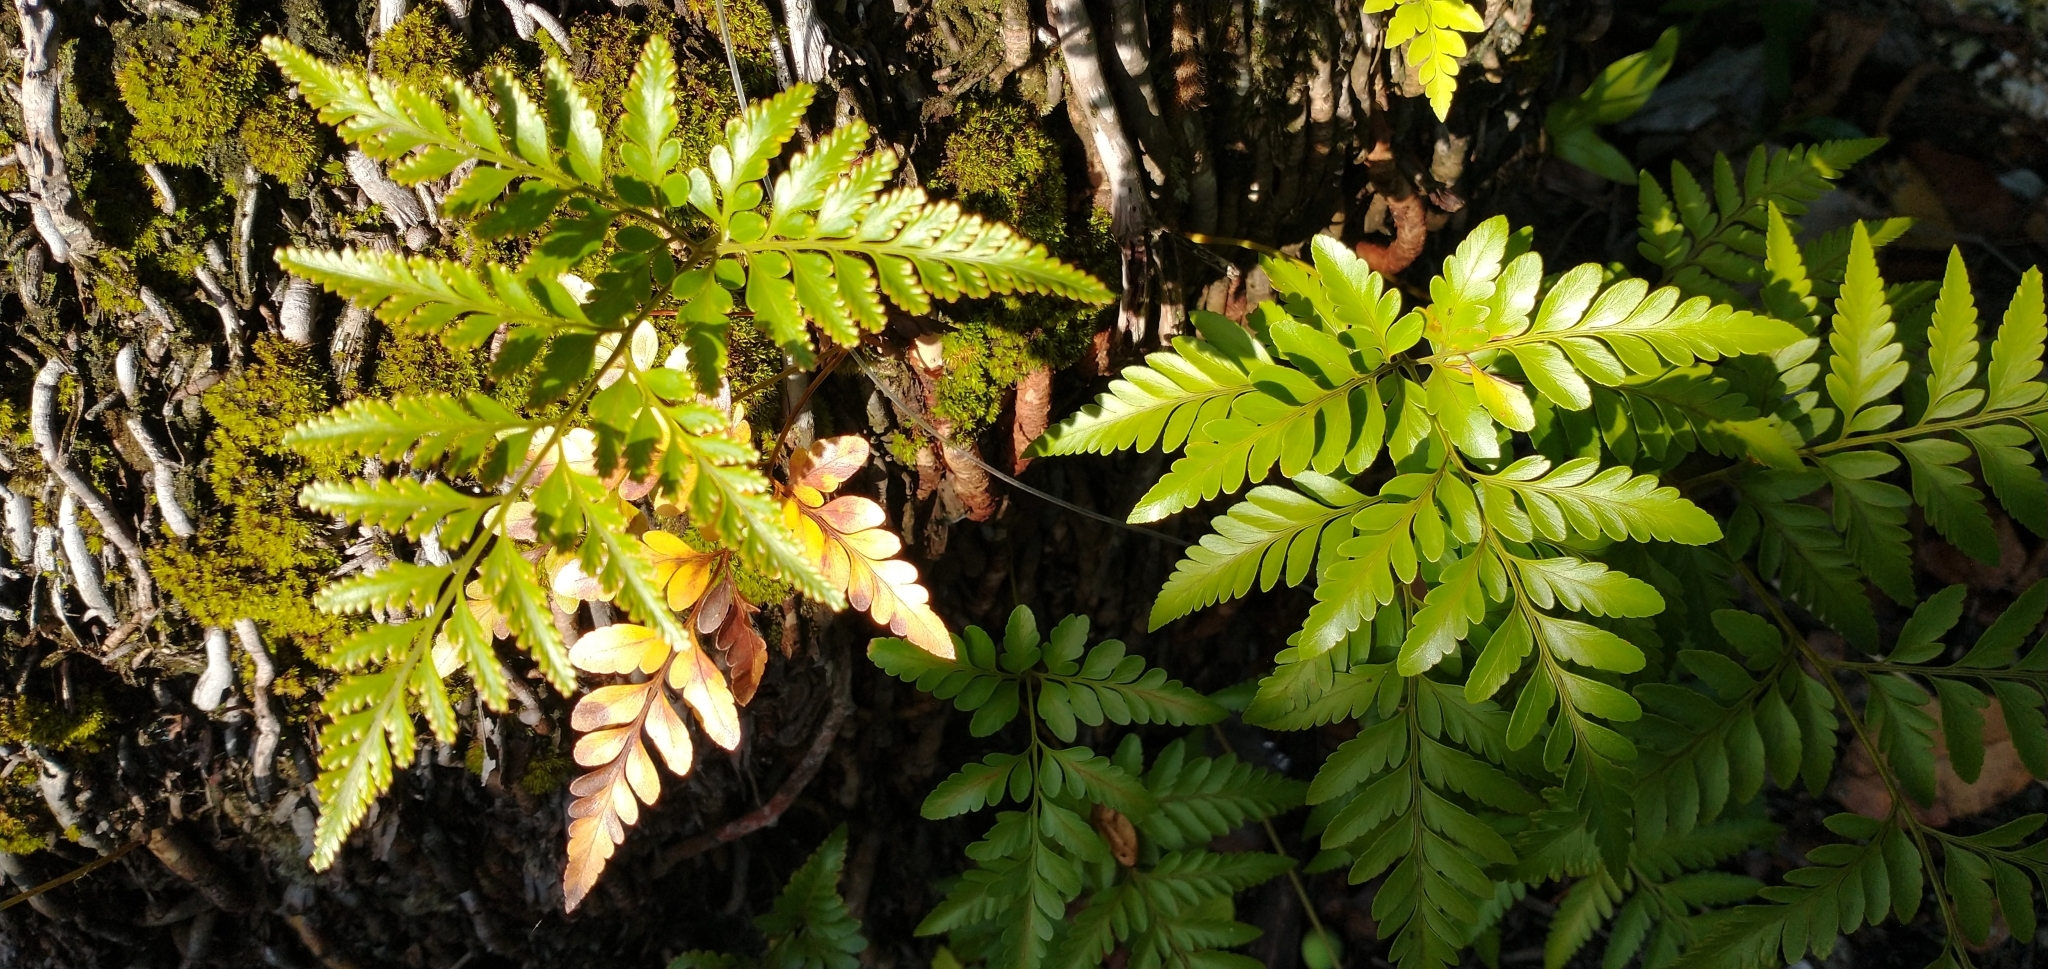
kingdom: Plantae
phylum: Tracheophyta
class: Polypodiopsida
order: Polypodiales
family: Davalliaceae
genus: Davallia
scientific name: Davallia solida
